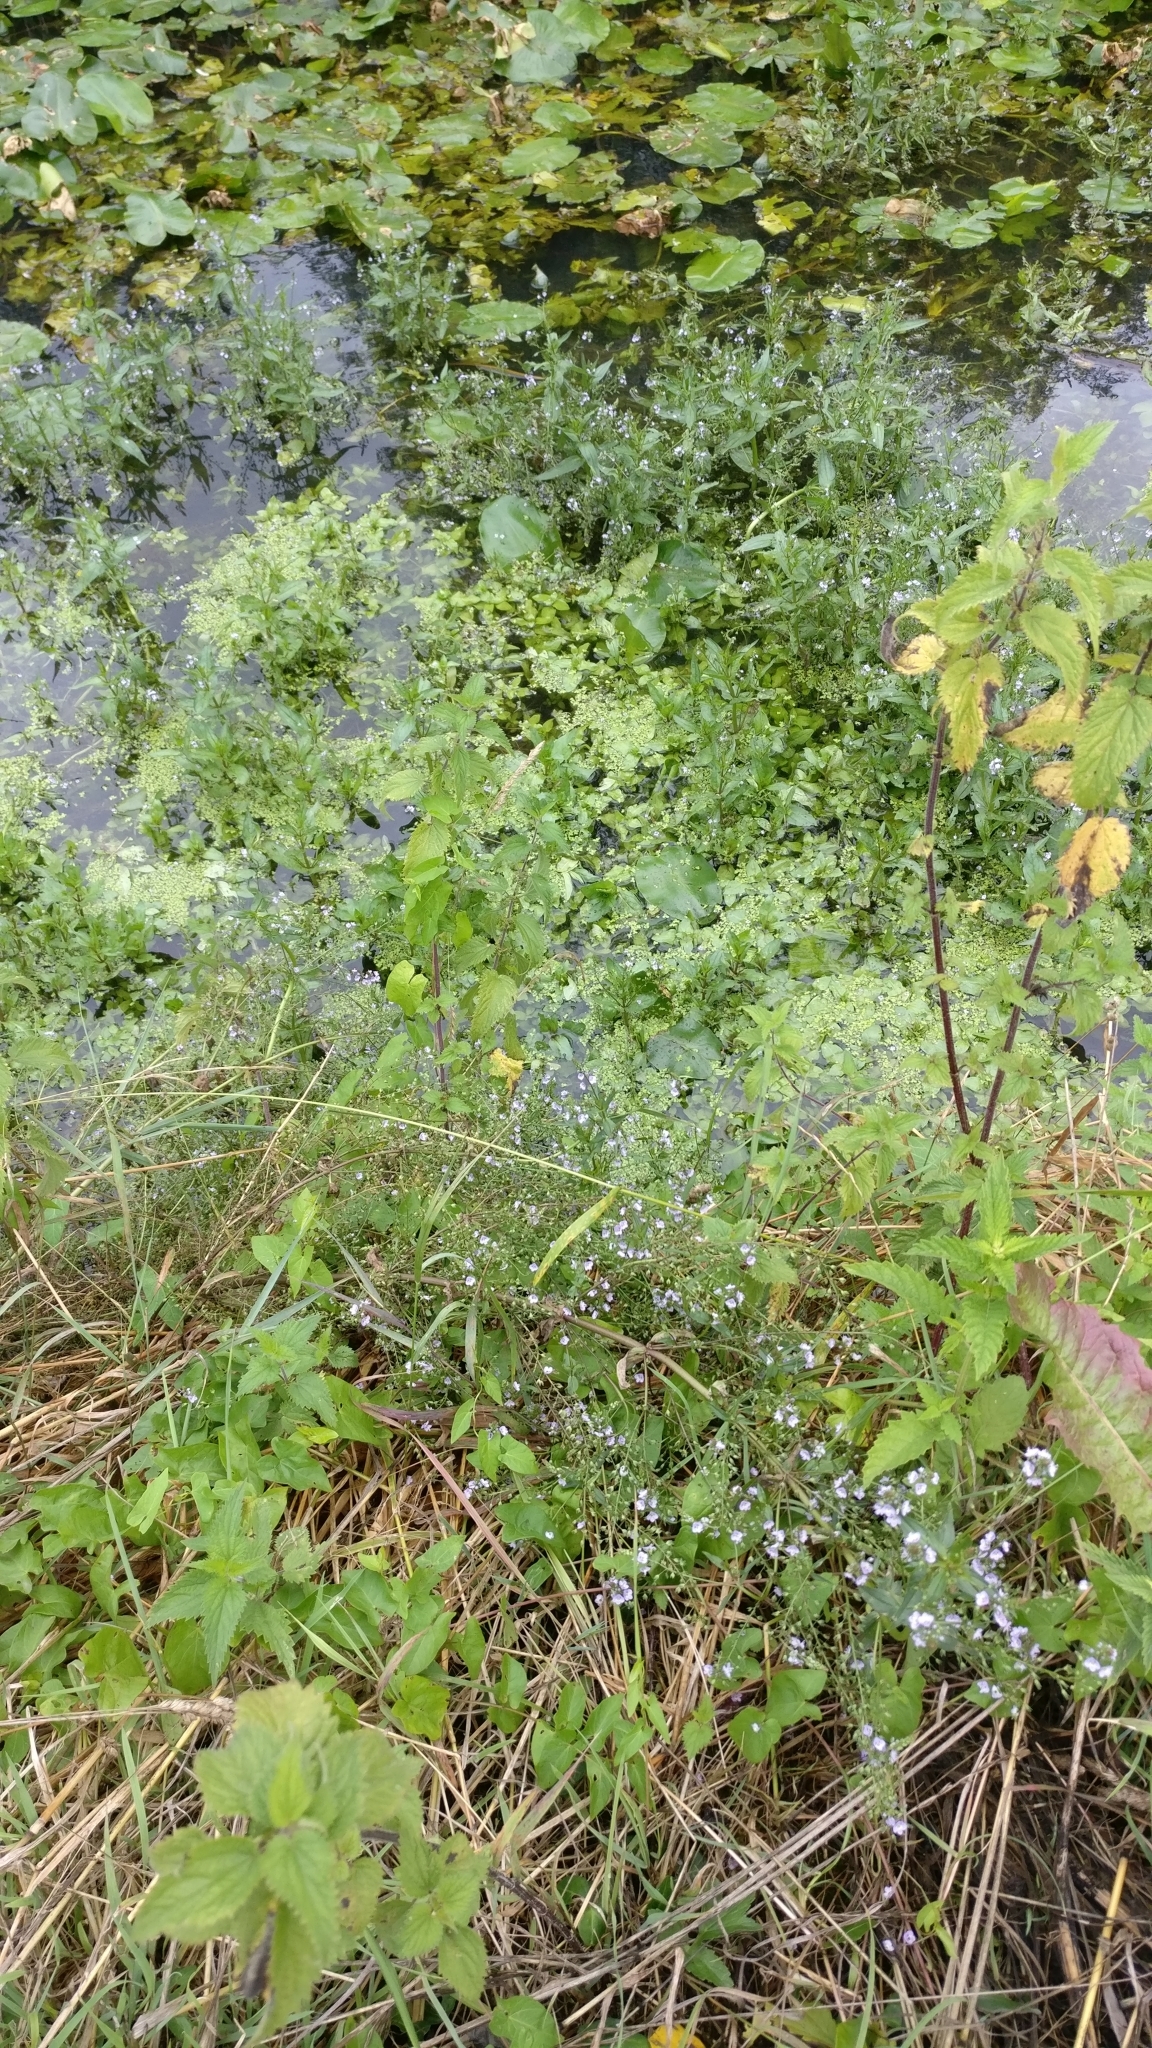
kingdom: Plantae
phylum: Tracheophyta
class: Magnoliopsida
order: Lamiales
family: Plantaginaceae
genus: Veronica
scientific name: Veronica anagallis-aquatica
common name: Water speedwell
